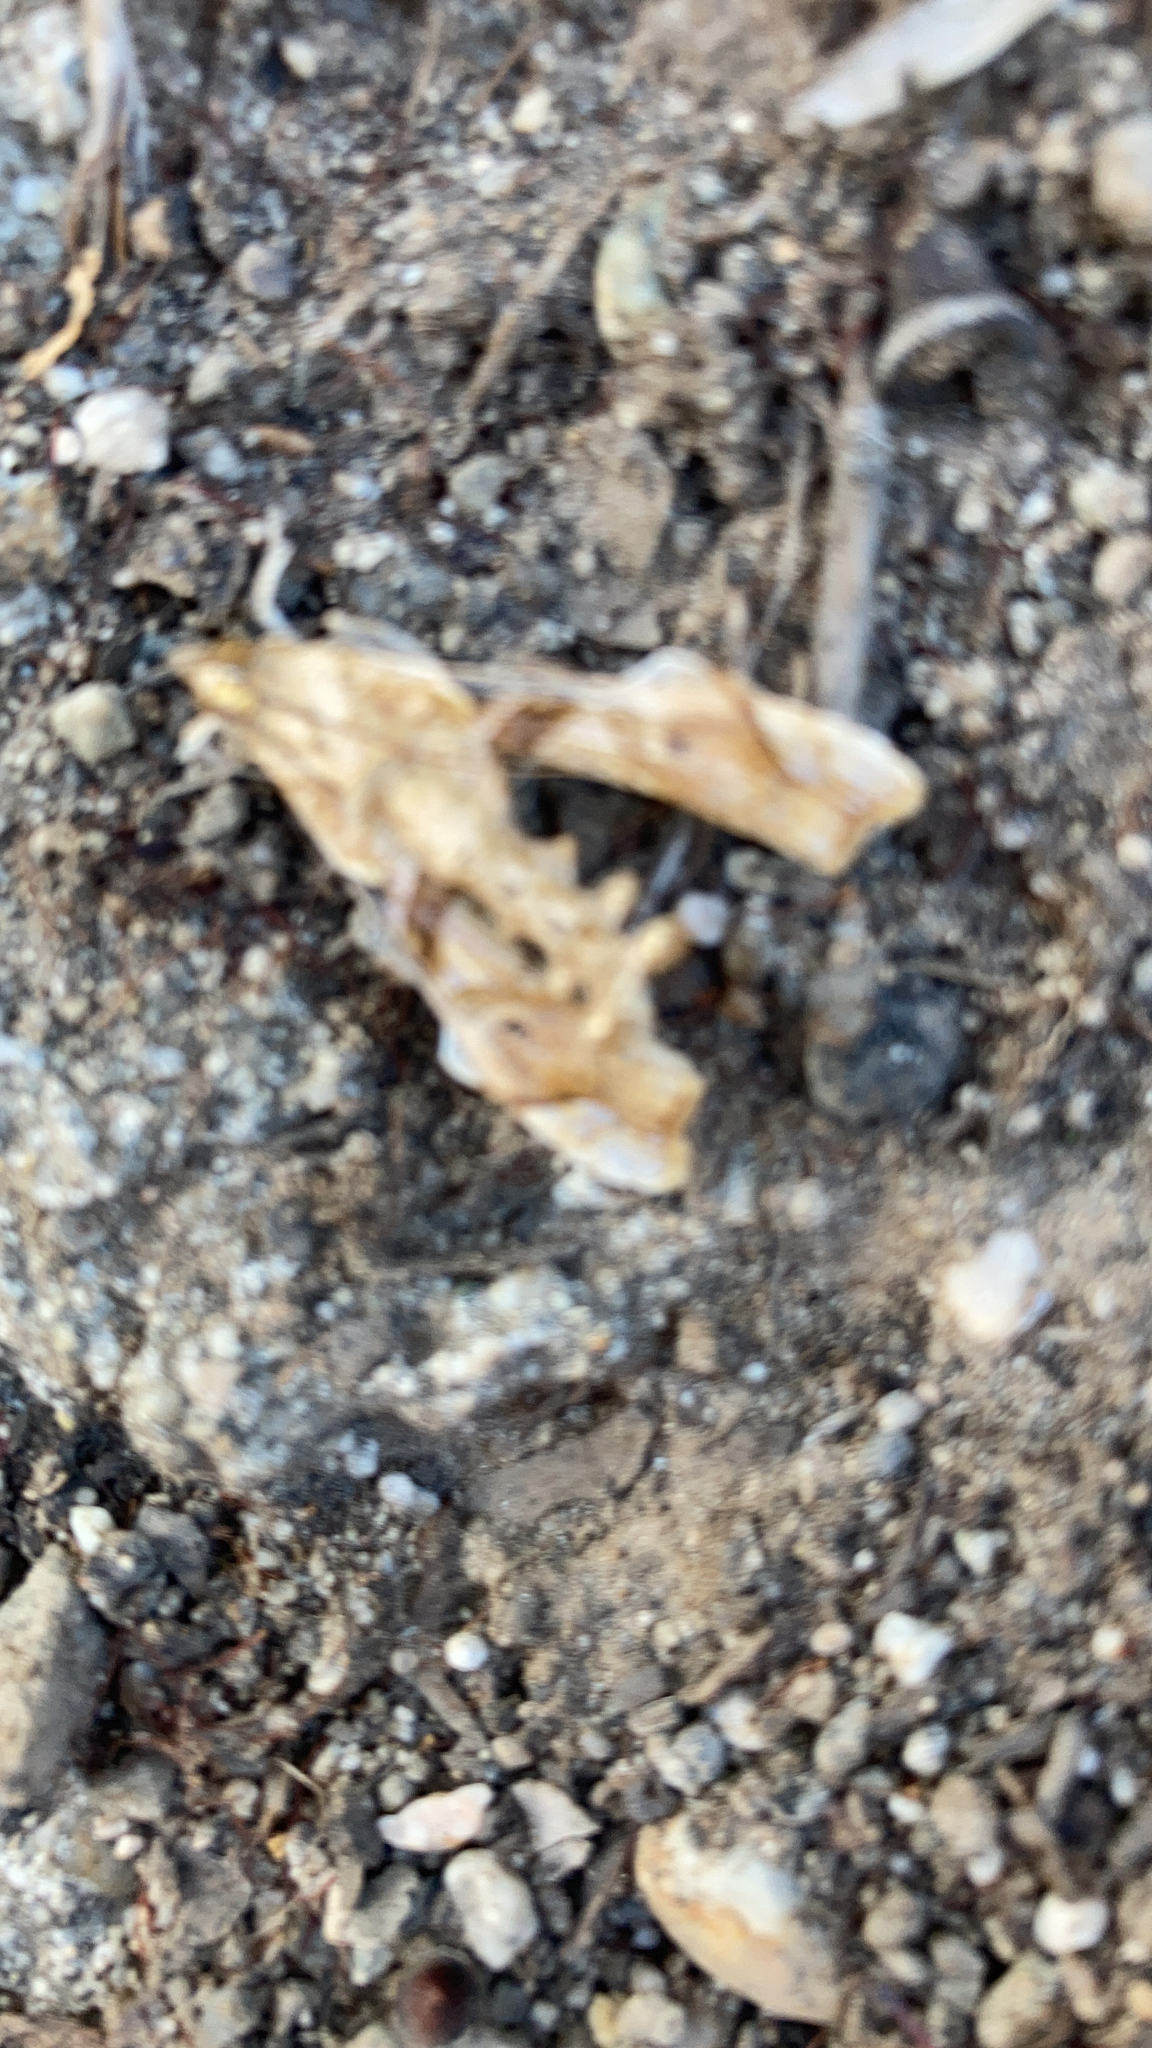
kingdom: Animalia
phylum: Arthropoda
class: Insecta
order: Lepidoptera
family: Crambidae
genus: Terastia
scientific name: Terastia meticulosalis
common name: Moth
